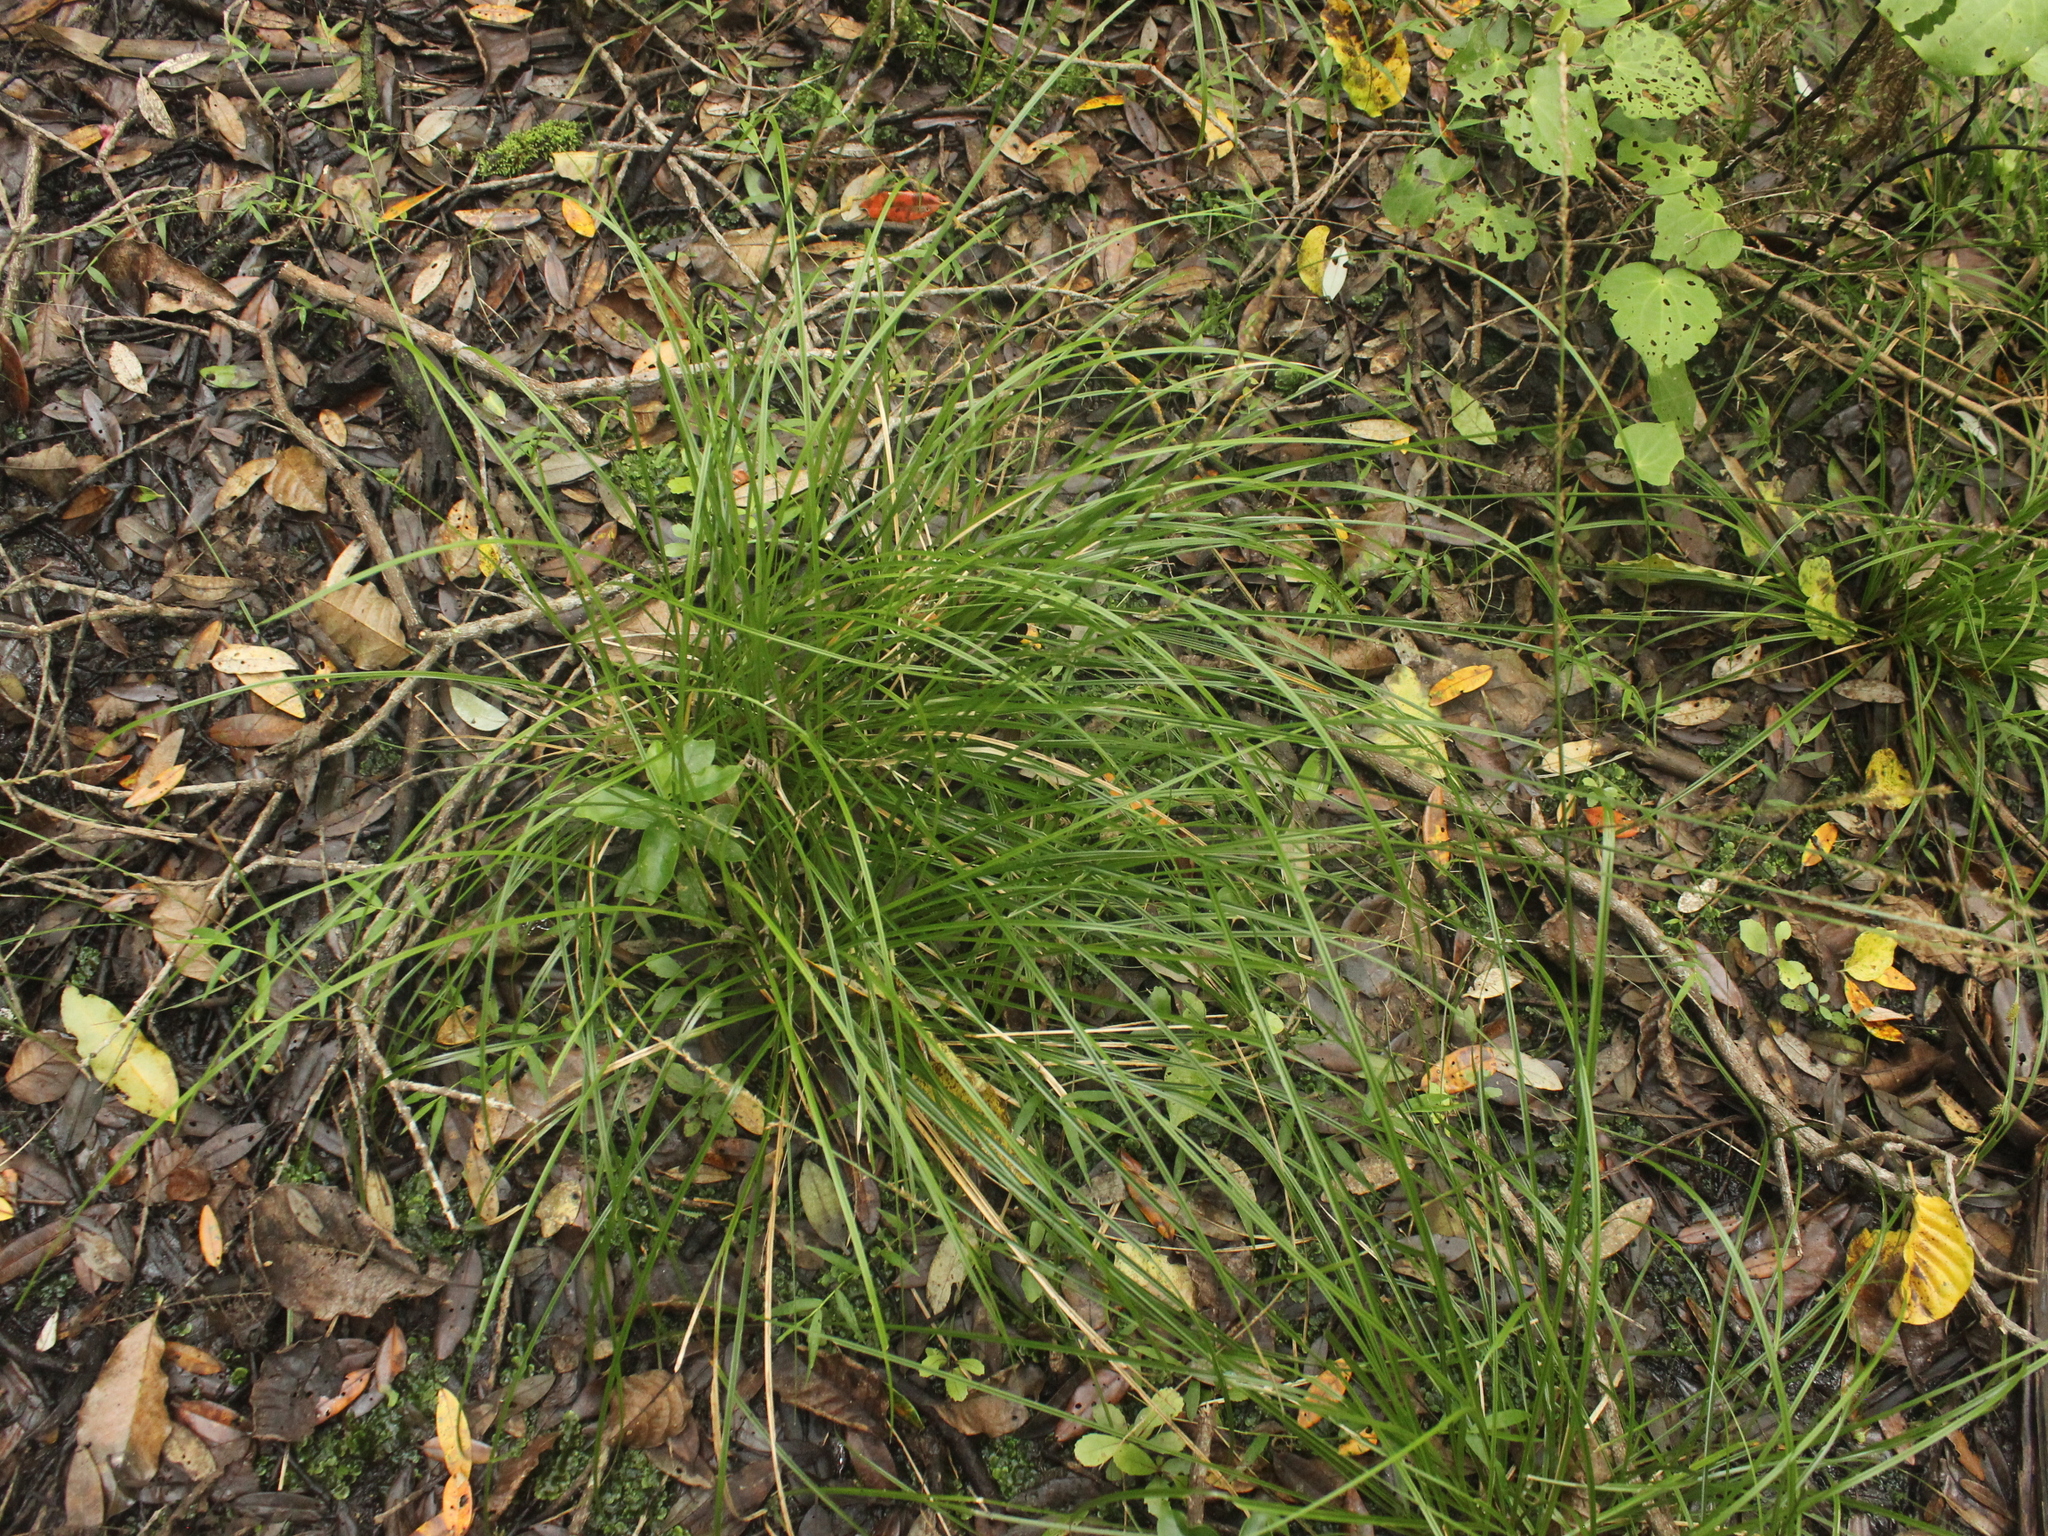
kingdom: Plantae
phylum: Tracheophyta
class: Liliopsida
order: Poales
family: Cyperaceae
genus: Carex
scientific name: Carex virgata
